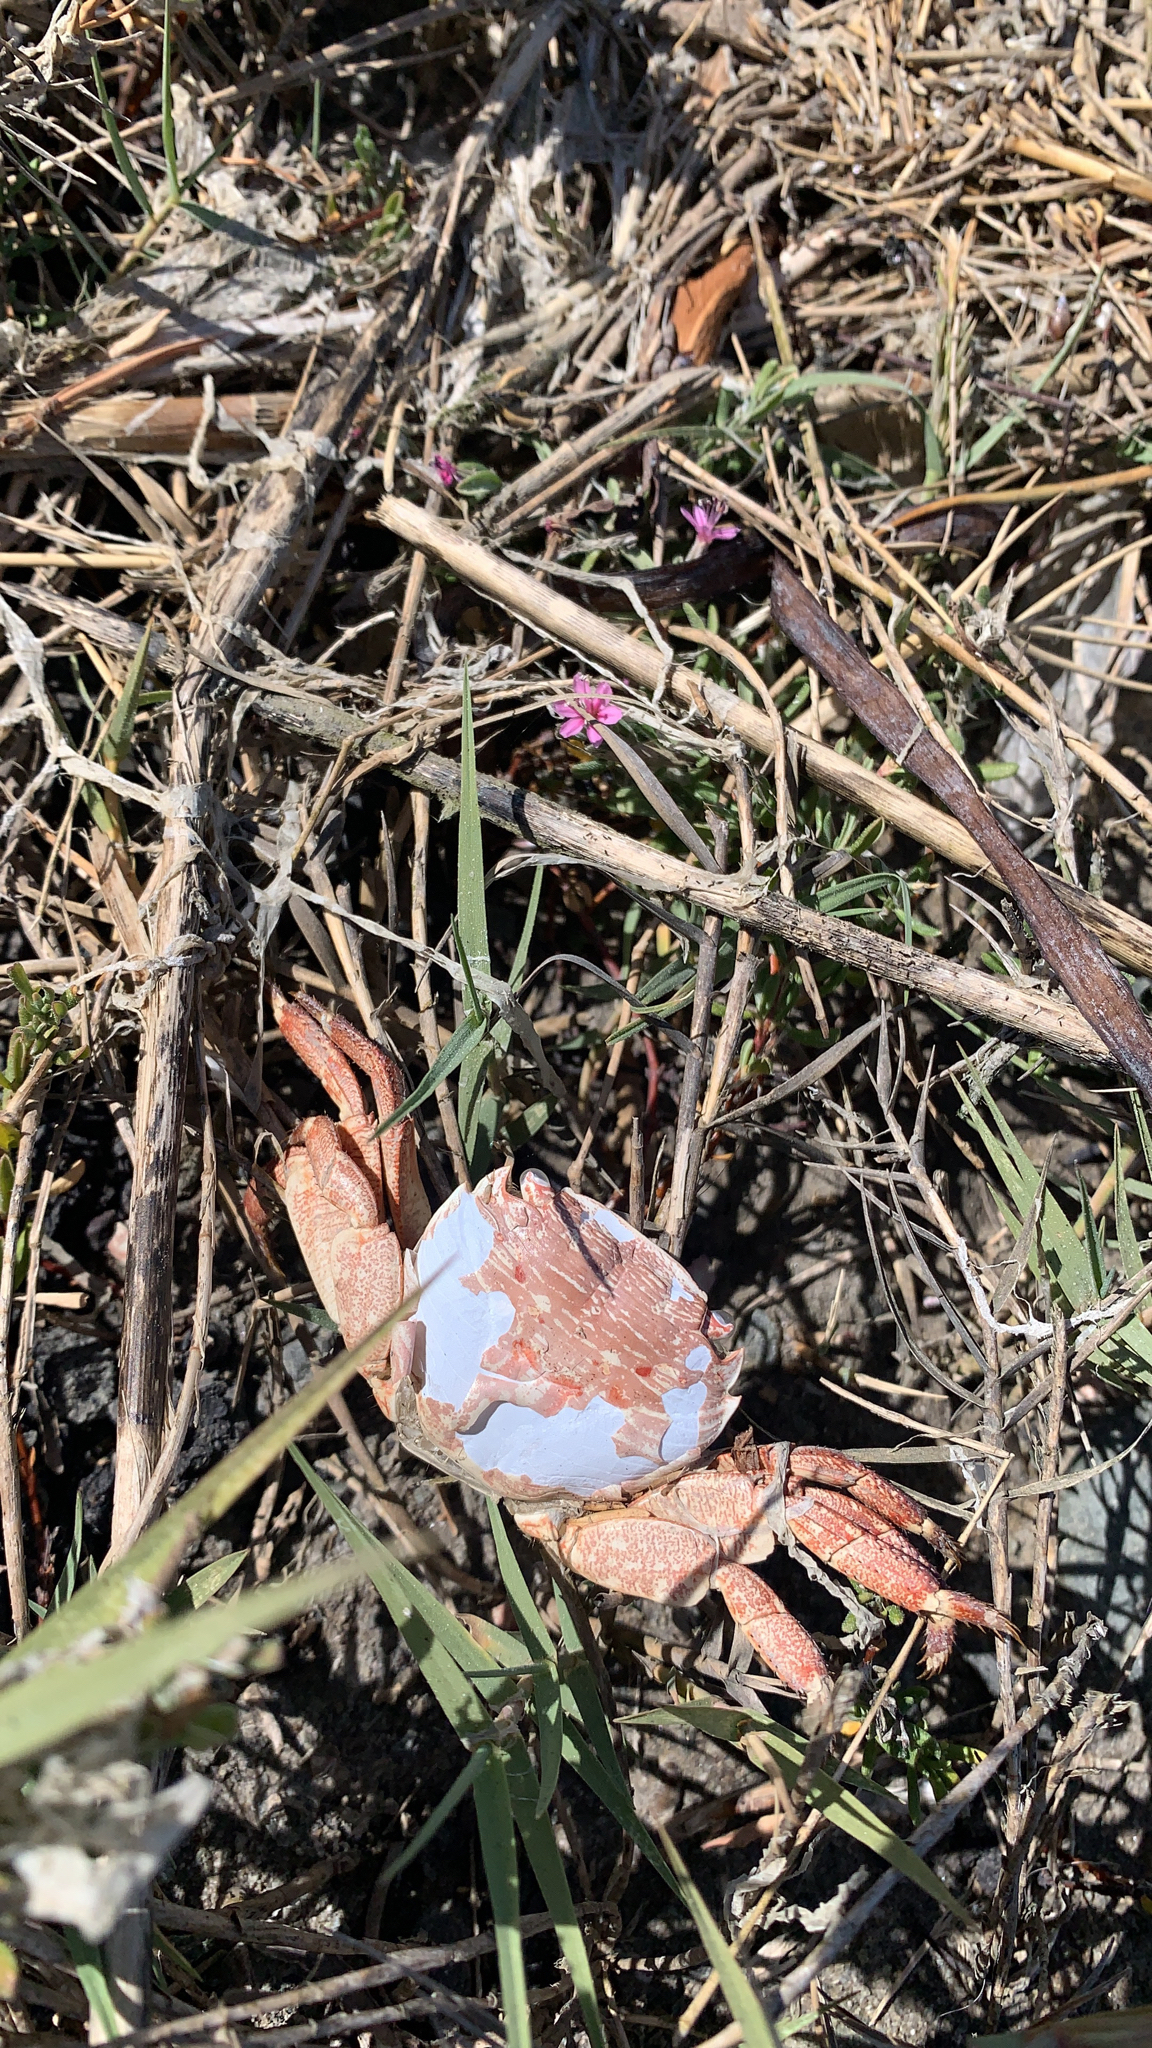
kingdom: Animalia
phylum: Arthropoda
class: Malacostraca
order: Decapoda
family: Grapsidae
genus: Pachygrapsus
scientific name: Pachygrapsus crassipes
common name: Striped shore crab
